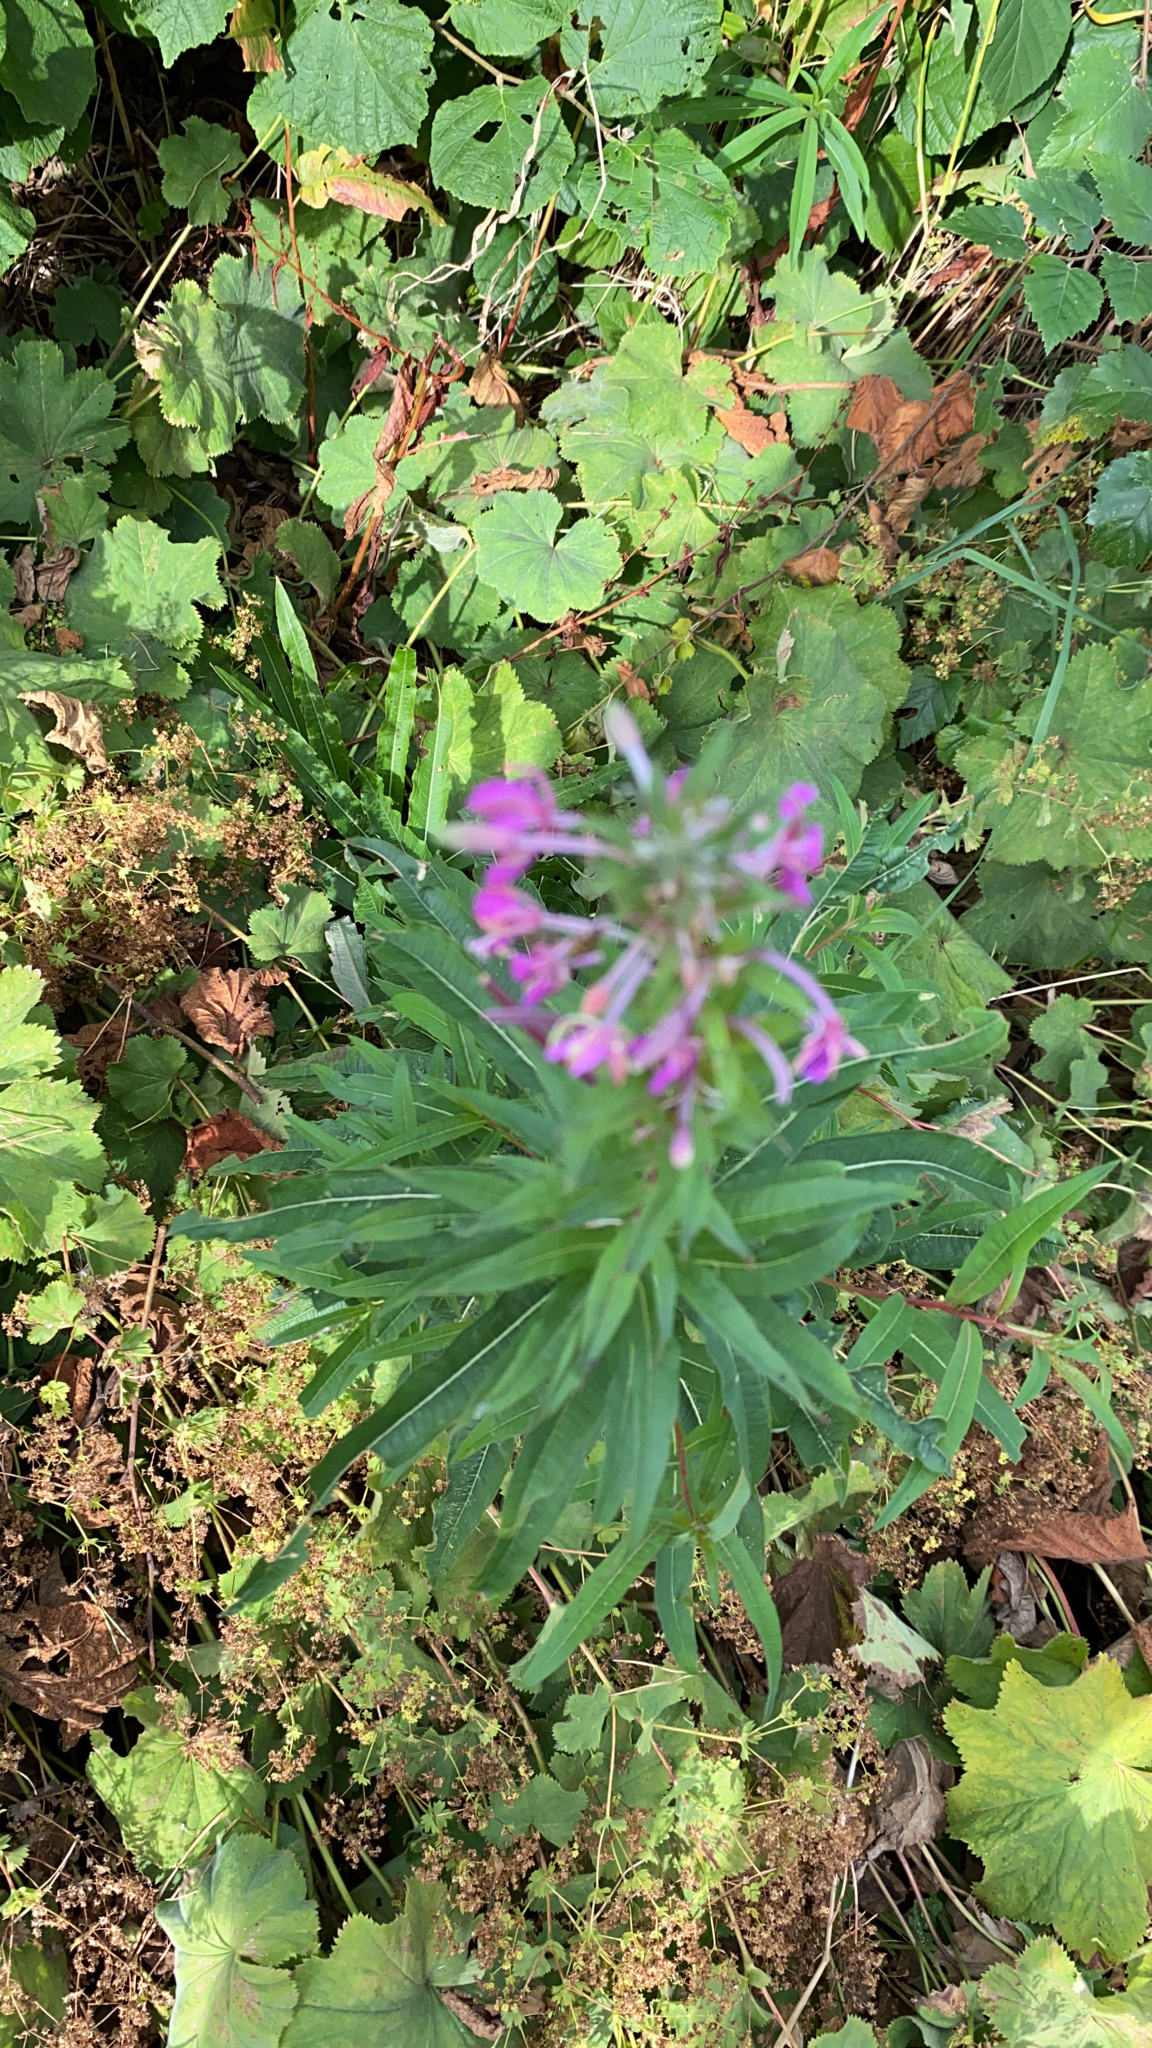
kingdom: Plantae
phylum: Tracheophyta
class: Magnoliopsida
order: Myrtales
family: Onagraceae
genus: Chamaenerion
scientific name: Chamaenerion angustifolium
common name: Fireweed
